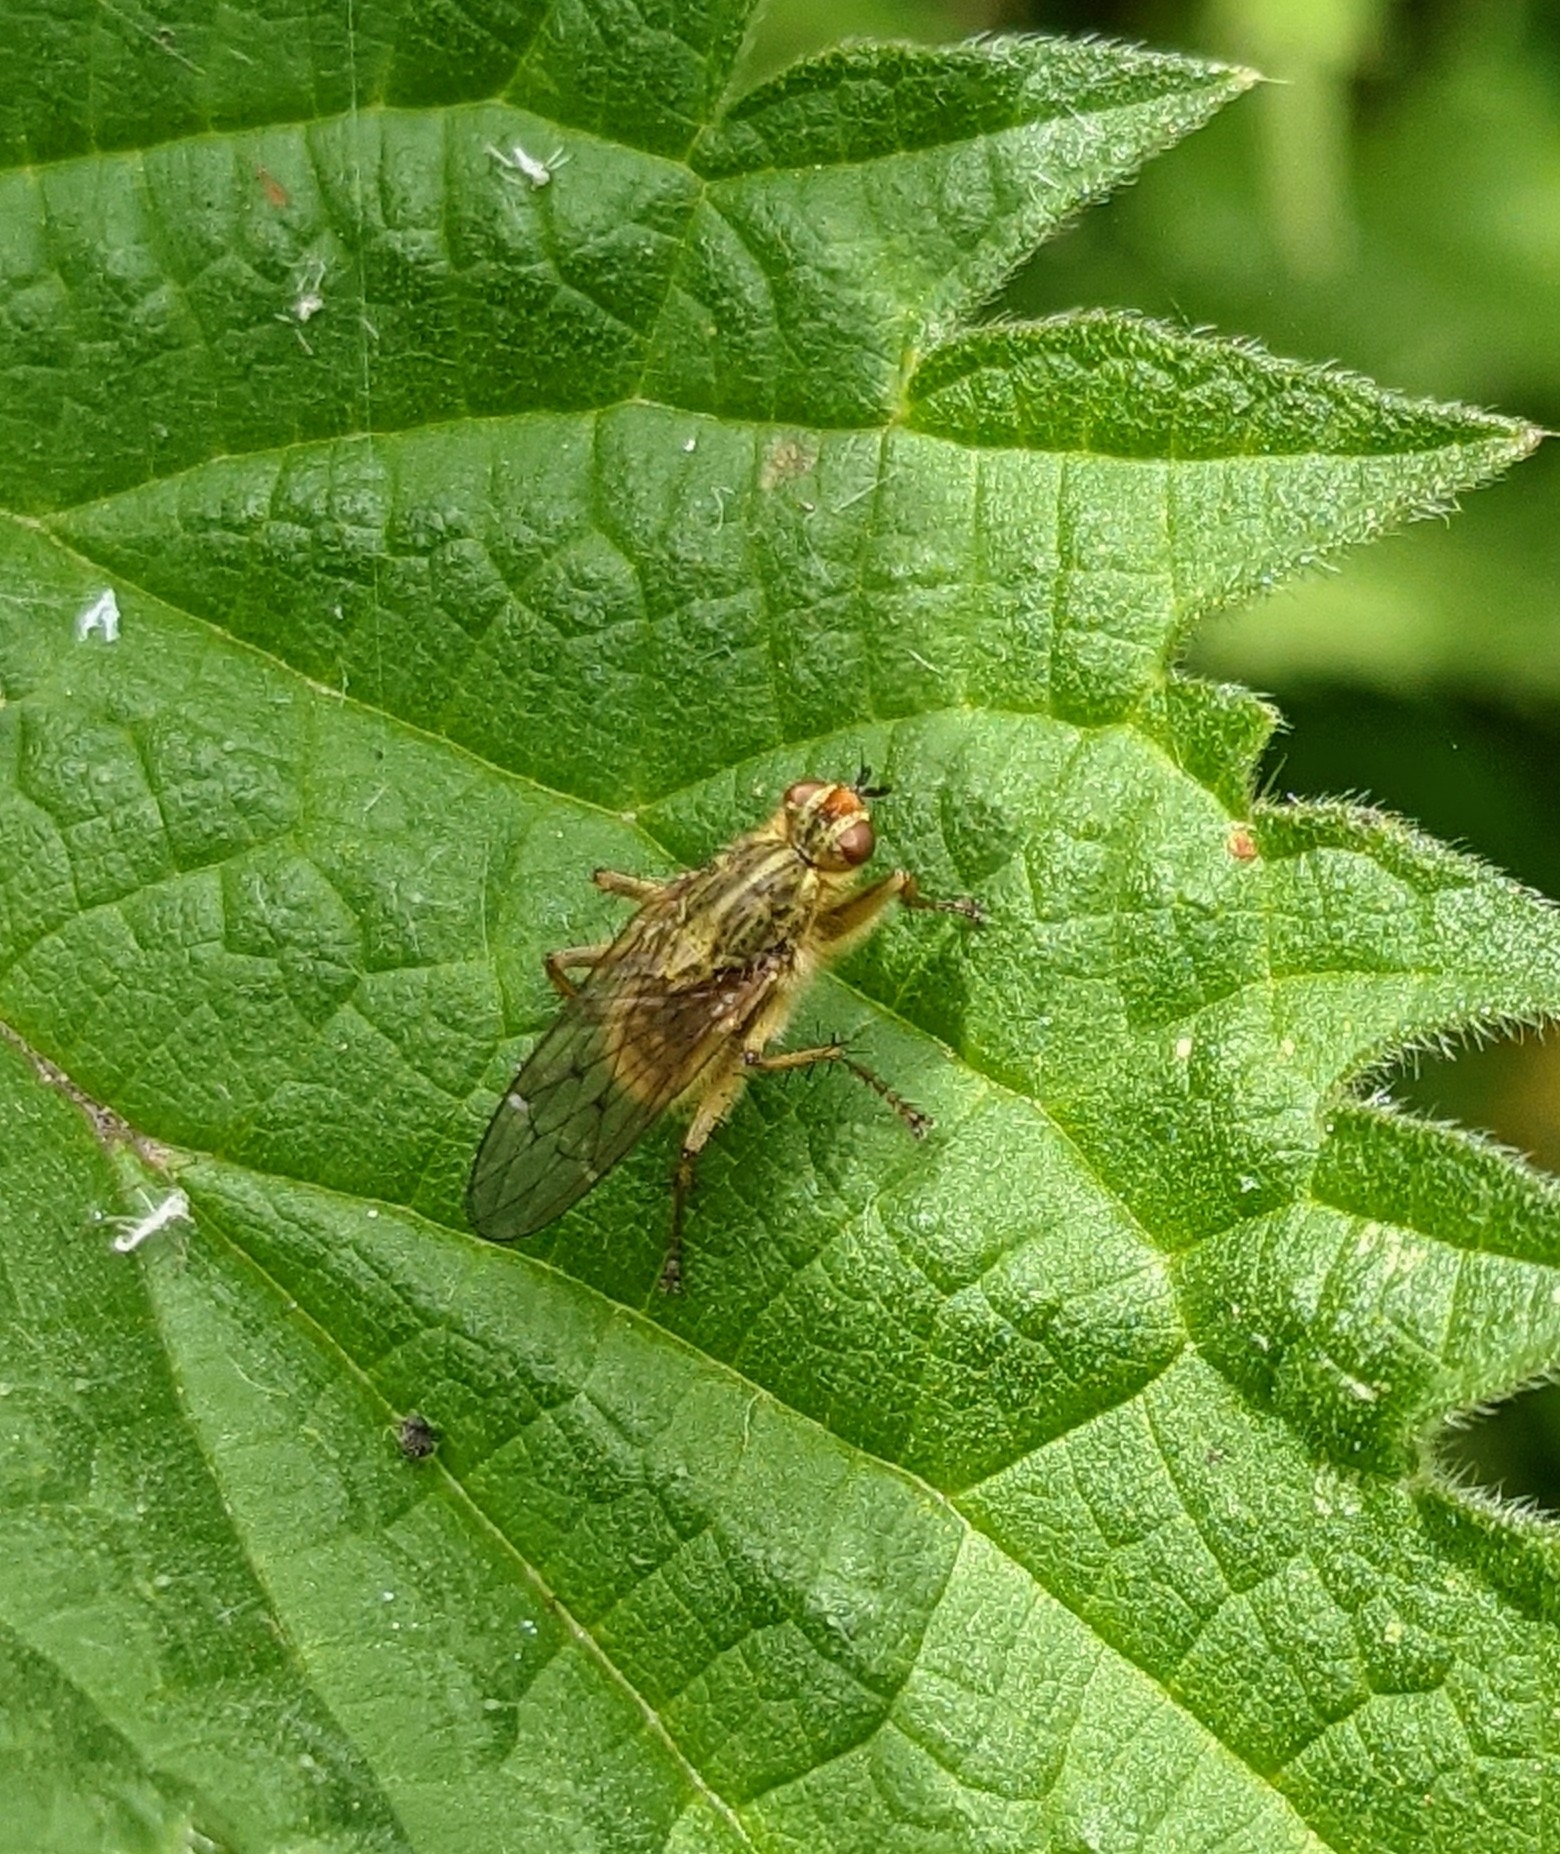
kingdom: Animalia
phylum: Arthropoda
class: Insecta
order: Diptera
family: Scathophagidae
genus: Scathophaga
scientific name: Scathophaga stercoraria
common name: Yellow dung fly
